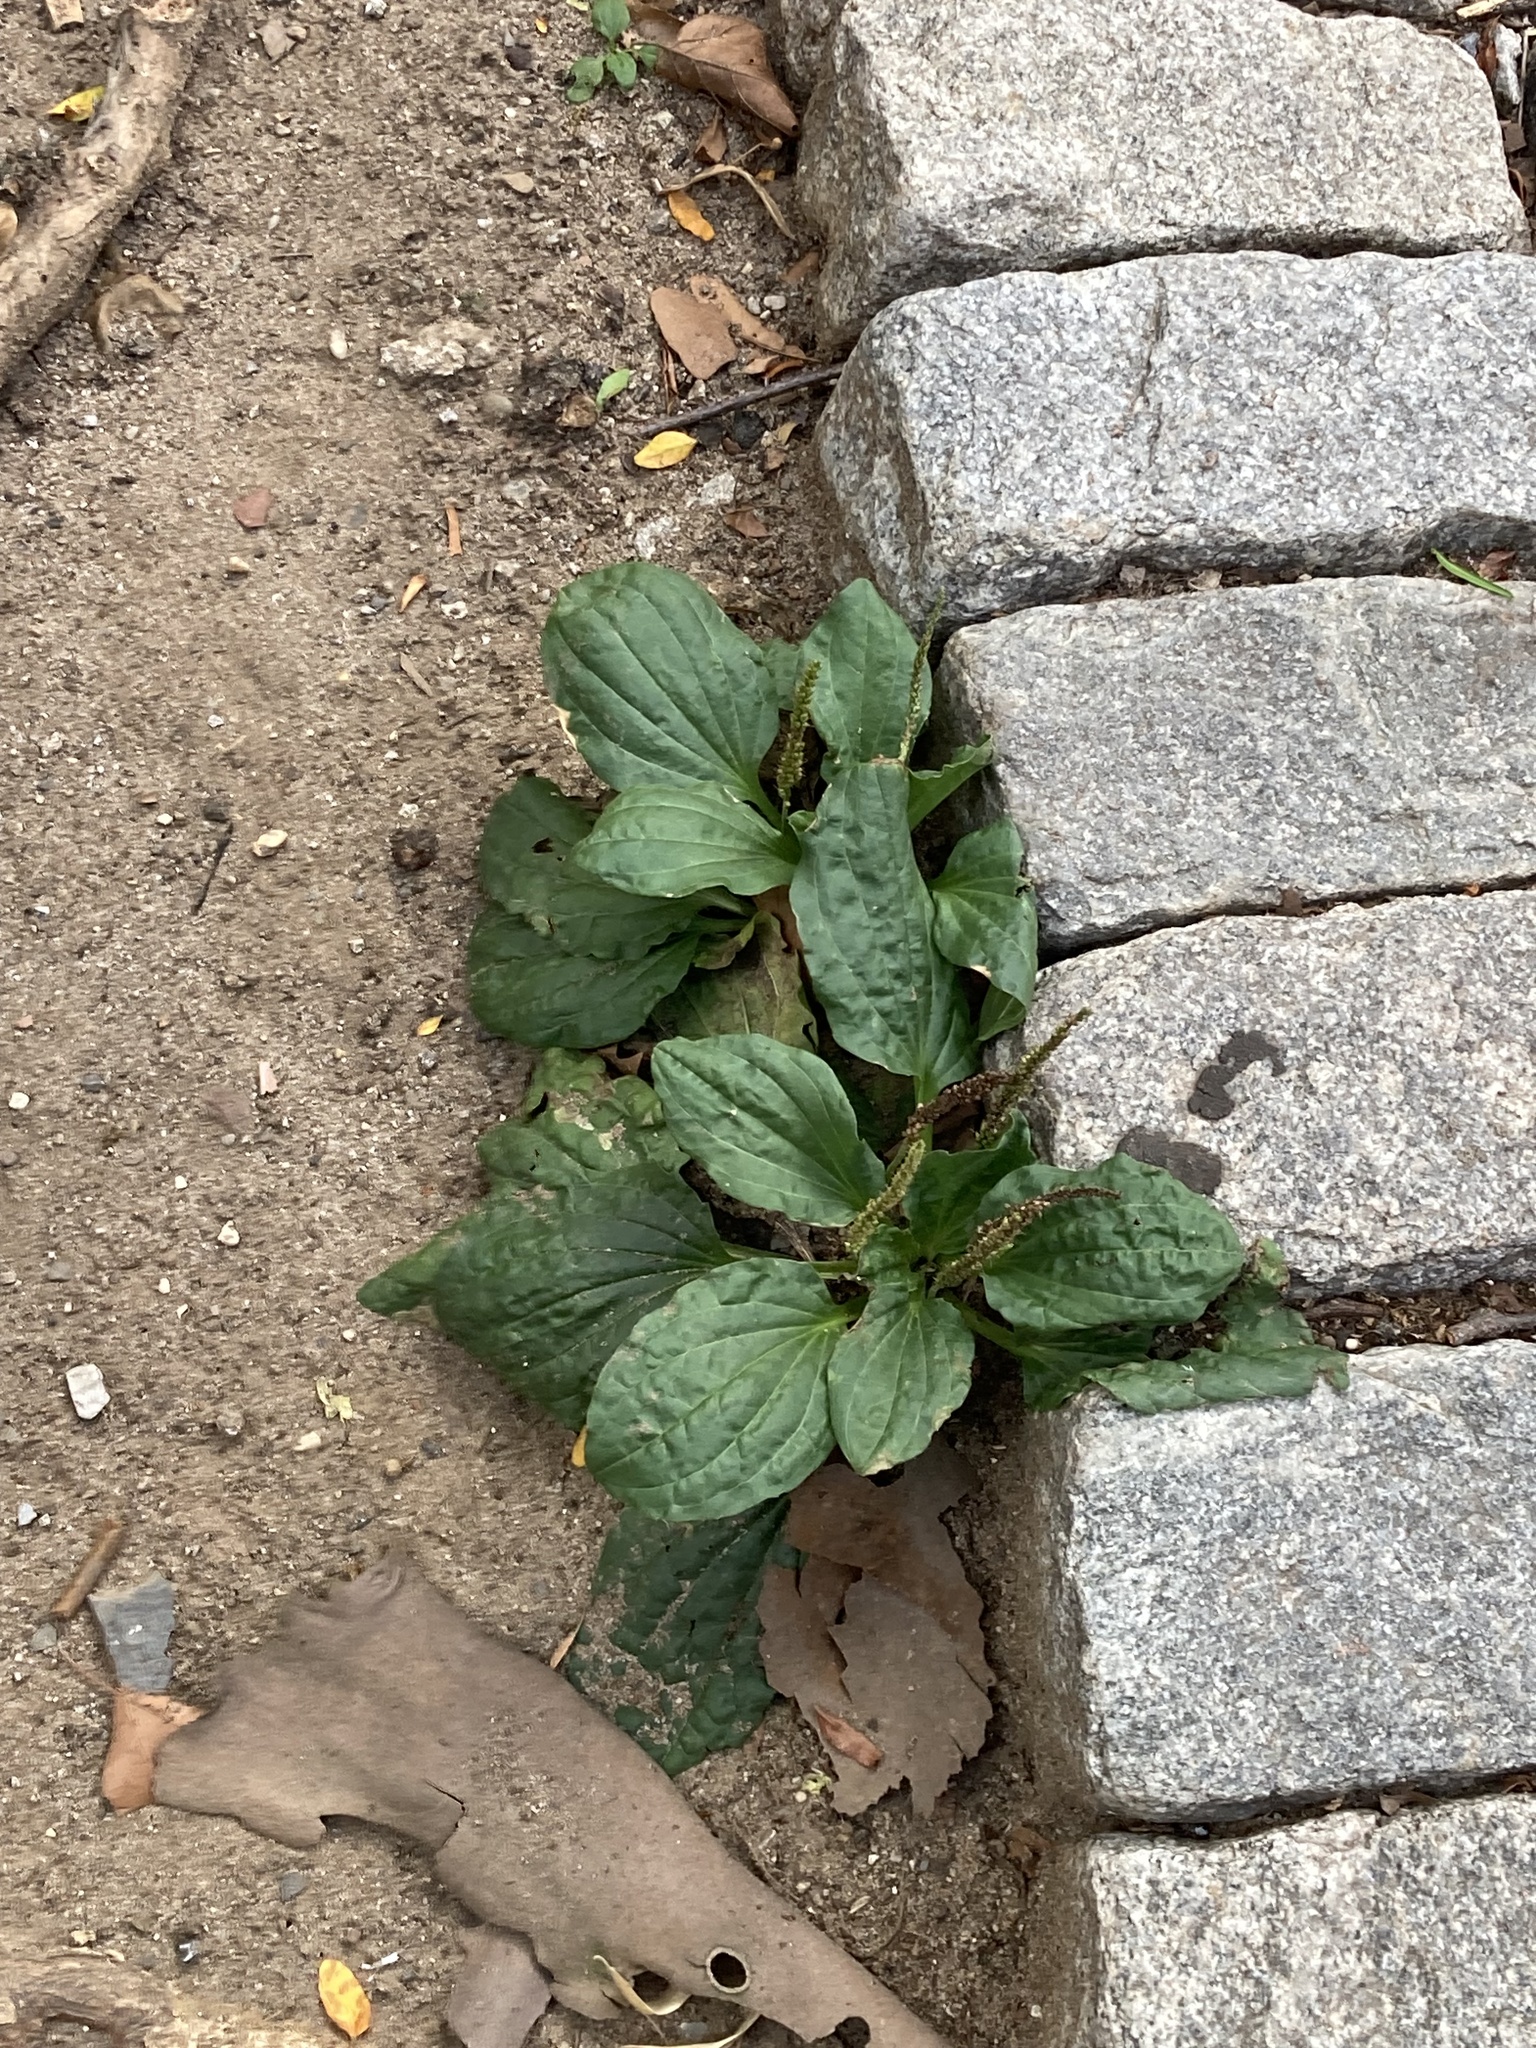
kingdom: Plantae
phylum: Tracheophyta
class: Magnoliopsida
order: Lamiales
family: Plantaginaceae
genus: Plantago
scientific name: Plantago major
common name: Common plantain
